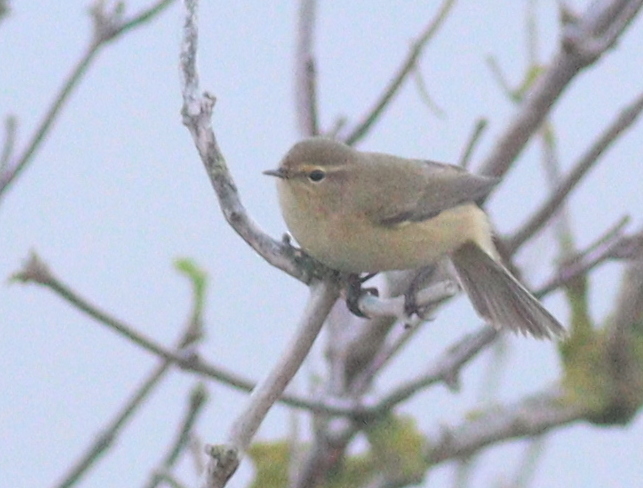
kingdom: Animalia
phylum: Chordata
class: Aves
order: Passeriformes
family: Phylloscopidae
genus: Phylloscopus
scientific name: Phylloscopus collybita
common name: Common chiffchaff
